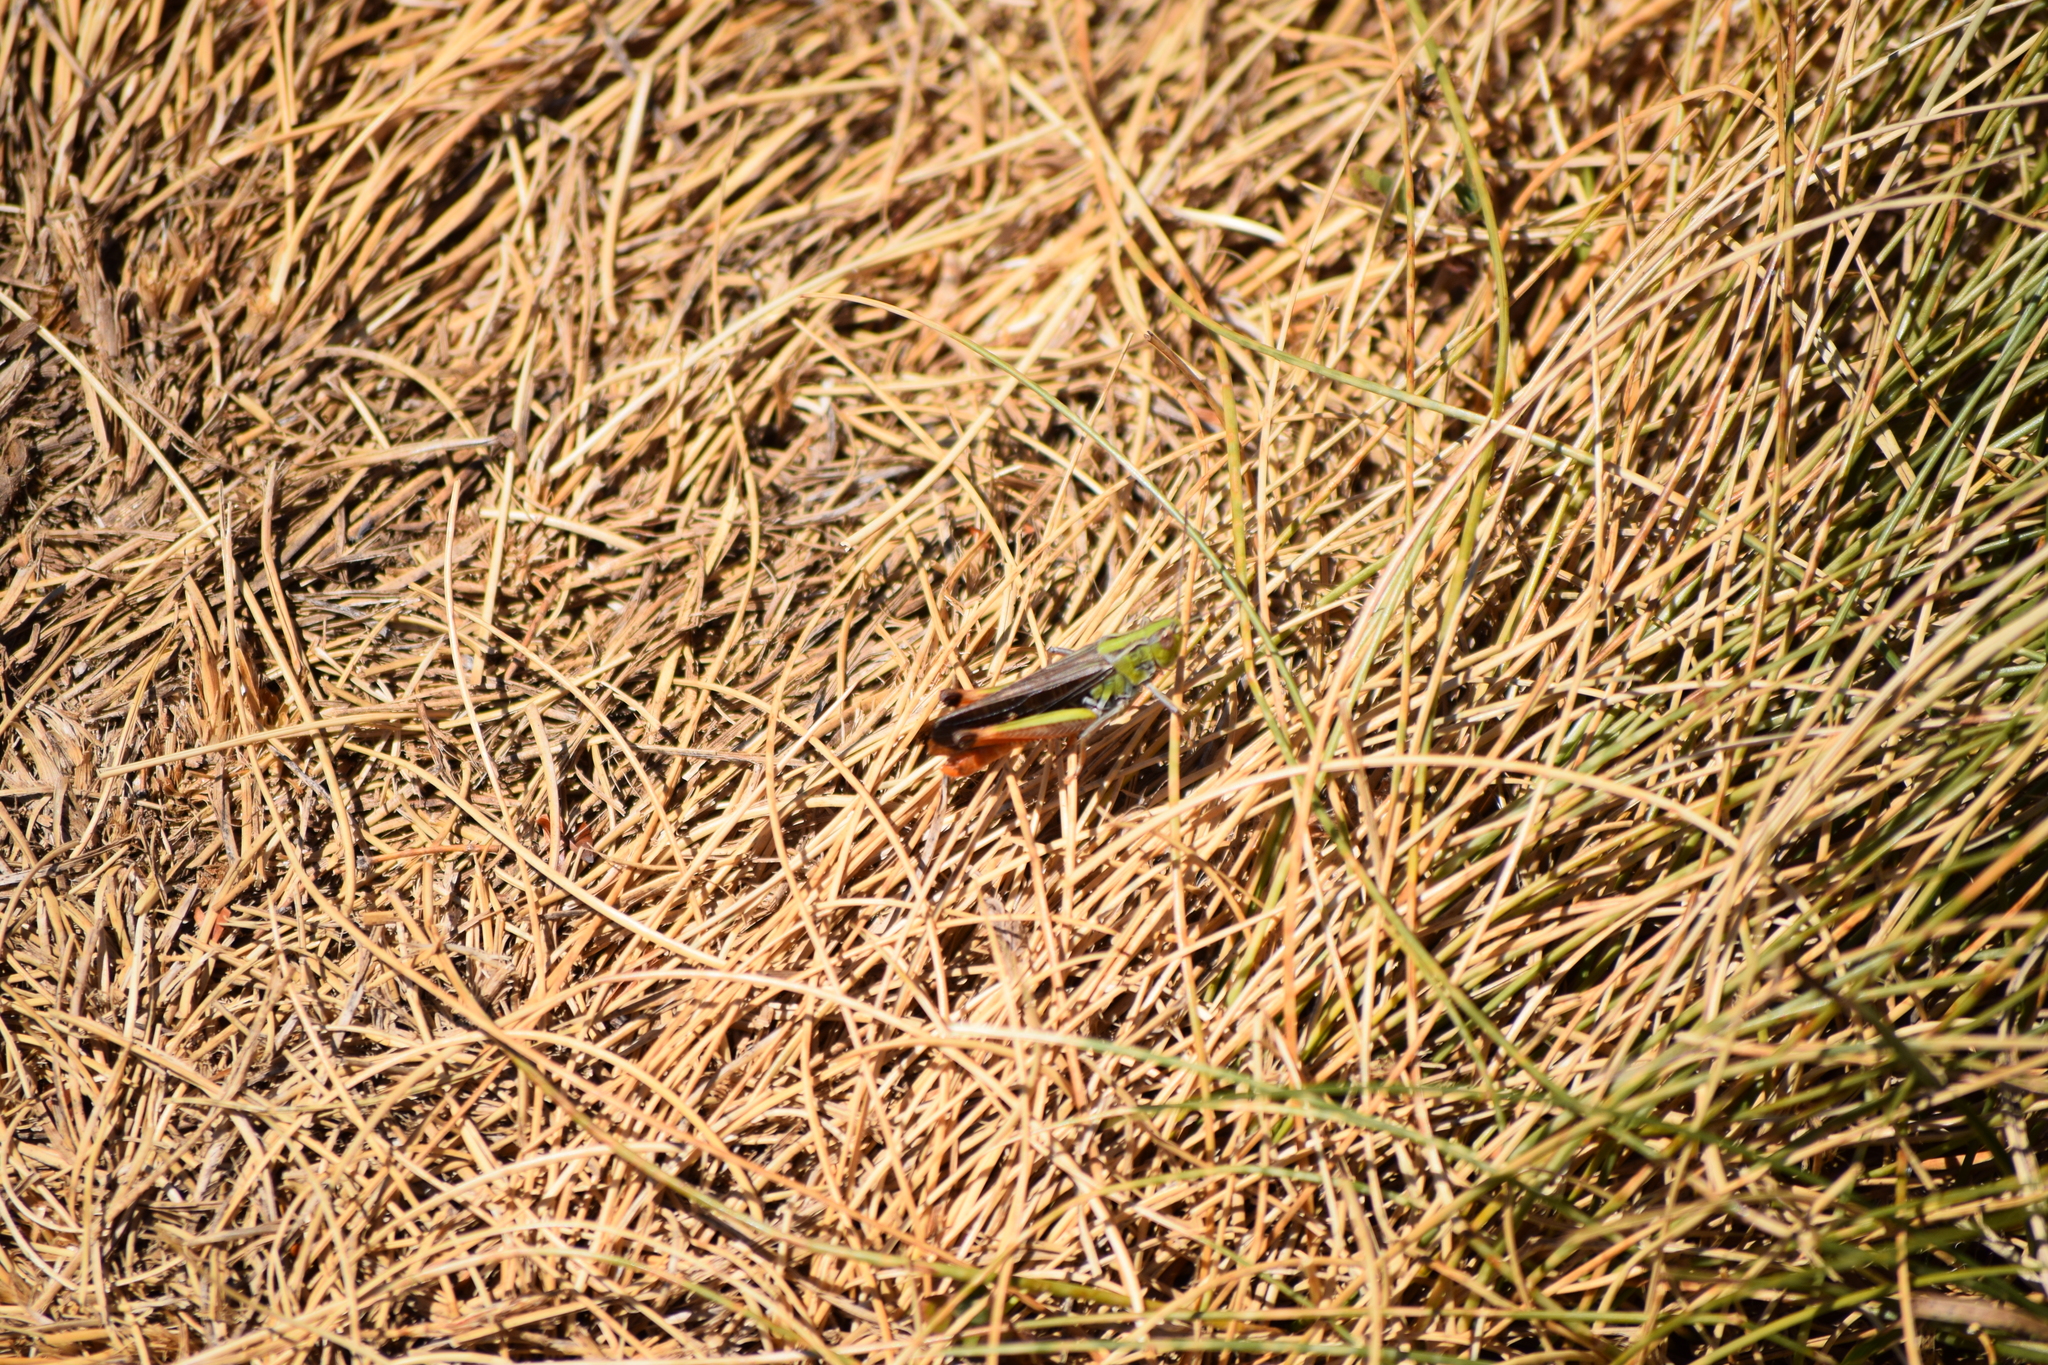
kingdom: Animalia
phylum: Arthropoda
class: Insecta
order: Orthoptera
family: Acrididae
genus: Stenobothrus
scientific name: Stenobothrus rubicundulus
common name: Wing-buzzing grasshopper
